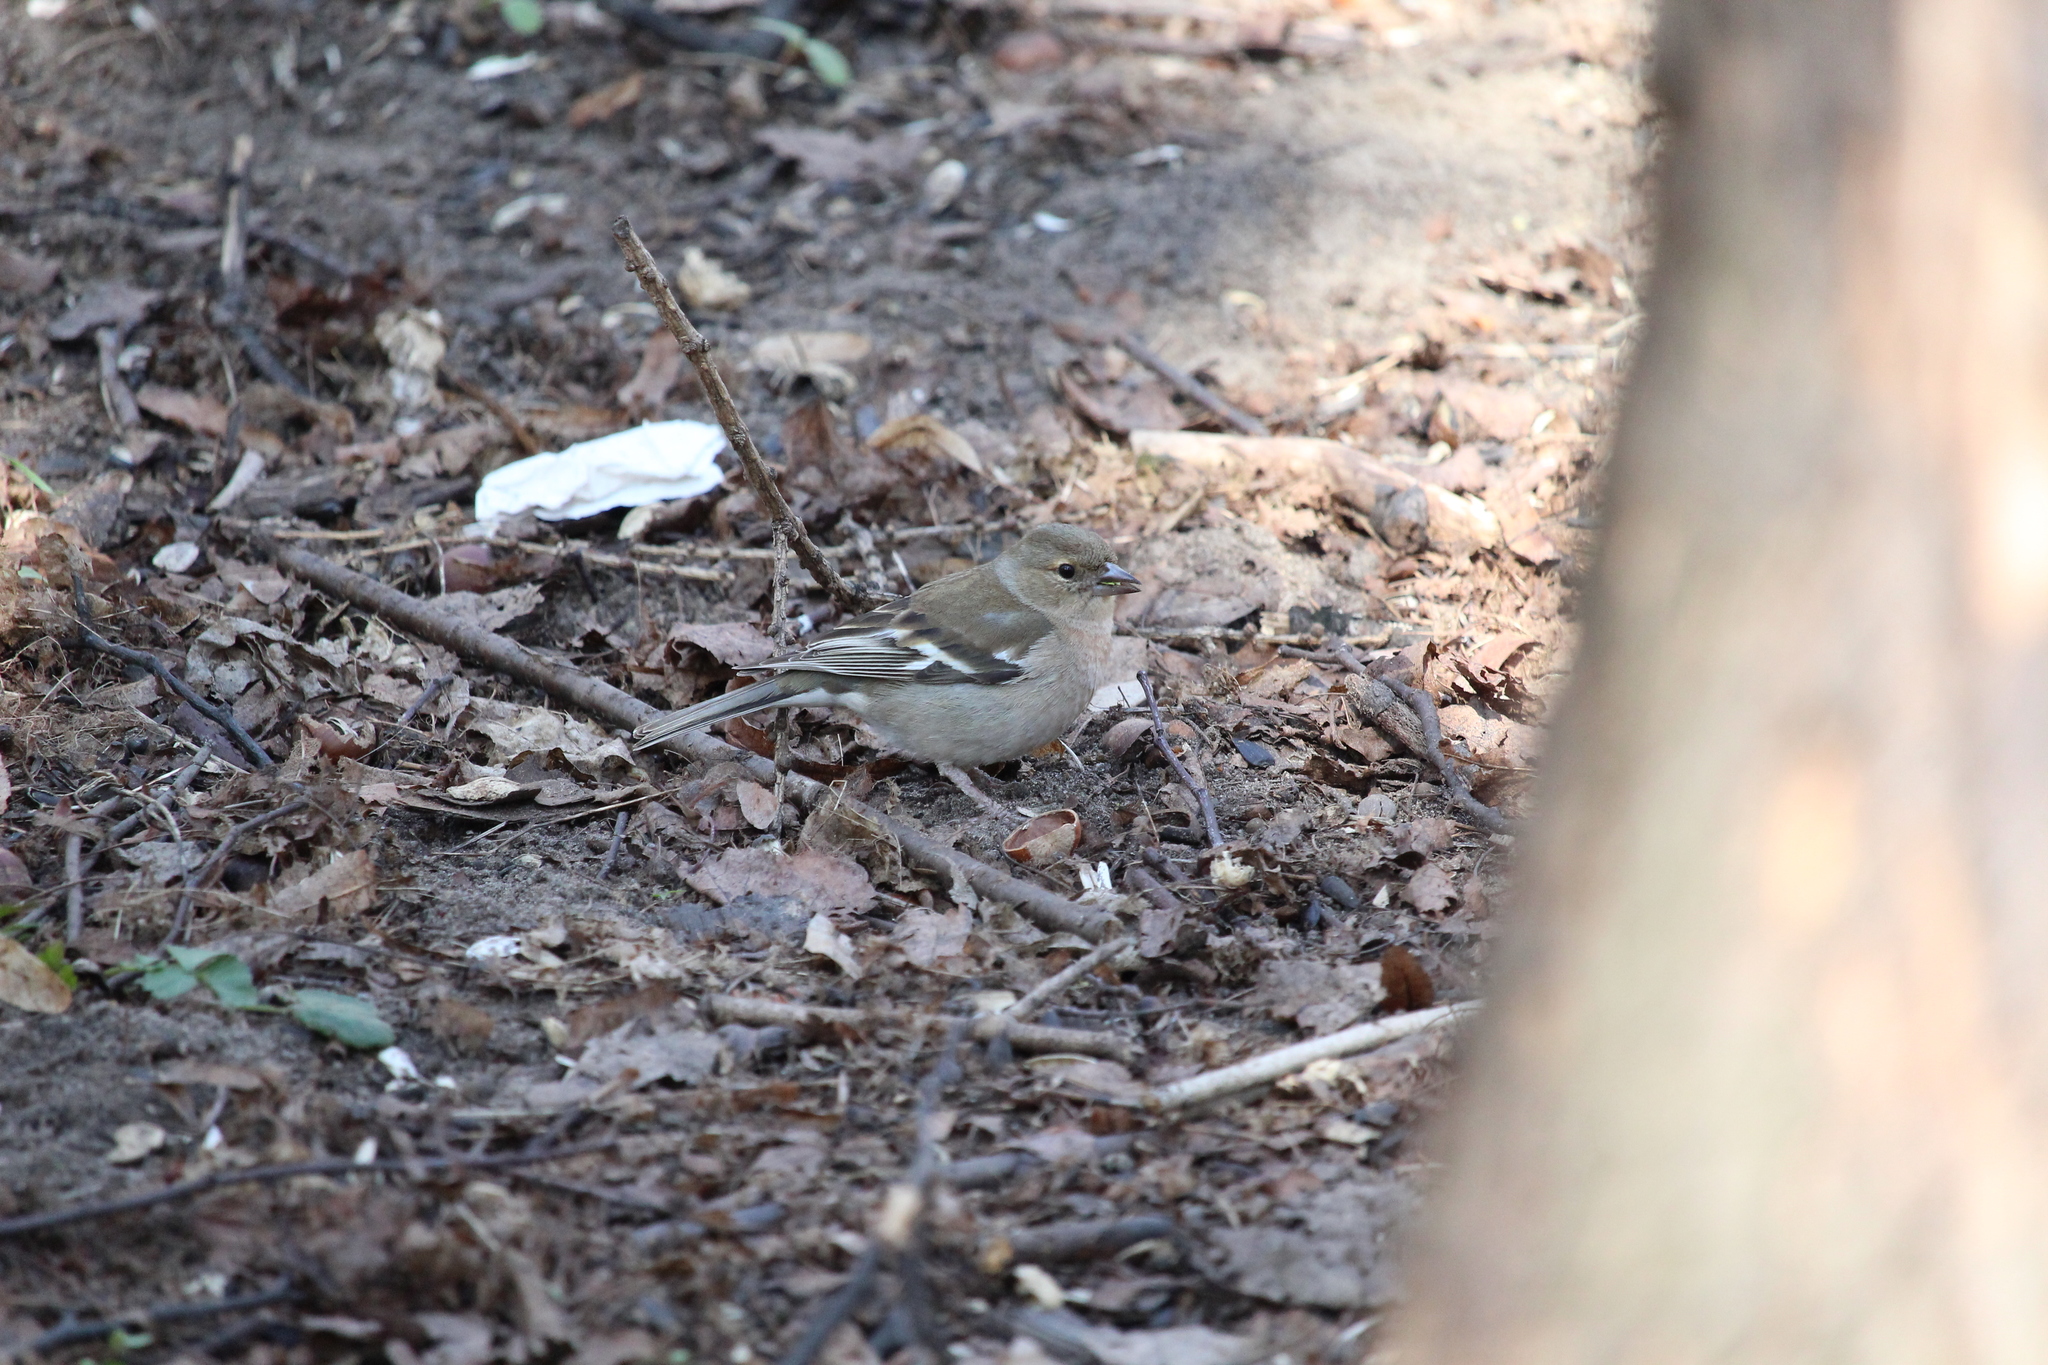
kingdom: Animalia
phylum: Chordata
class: Aves
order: Passeriformes
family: Fringillidae
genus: Fringilla
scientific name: Fringilla coelebs
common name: Common chaffinch
